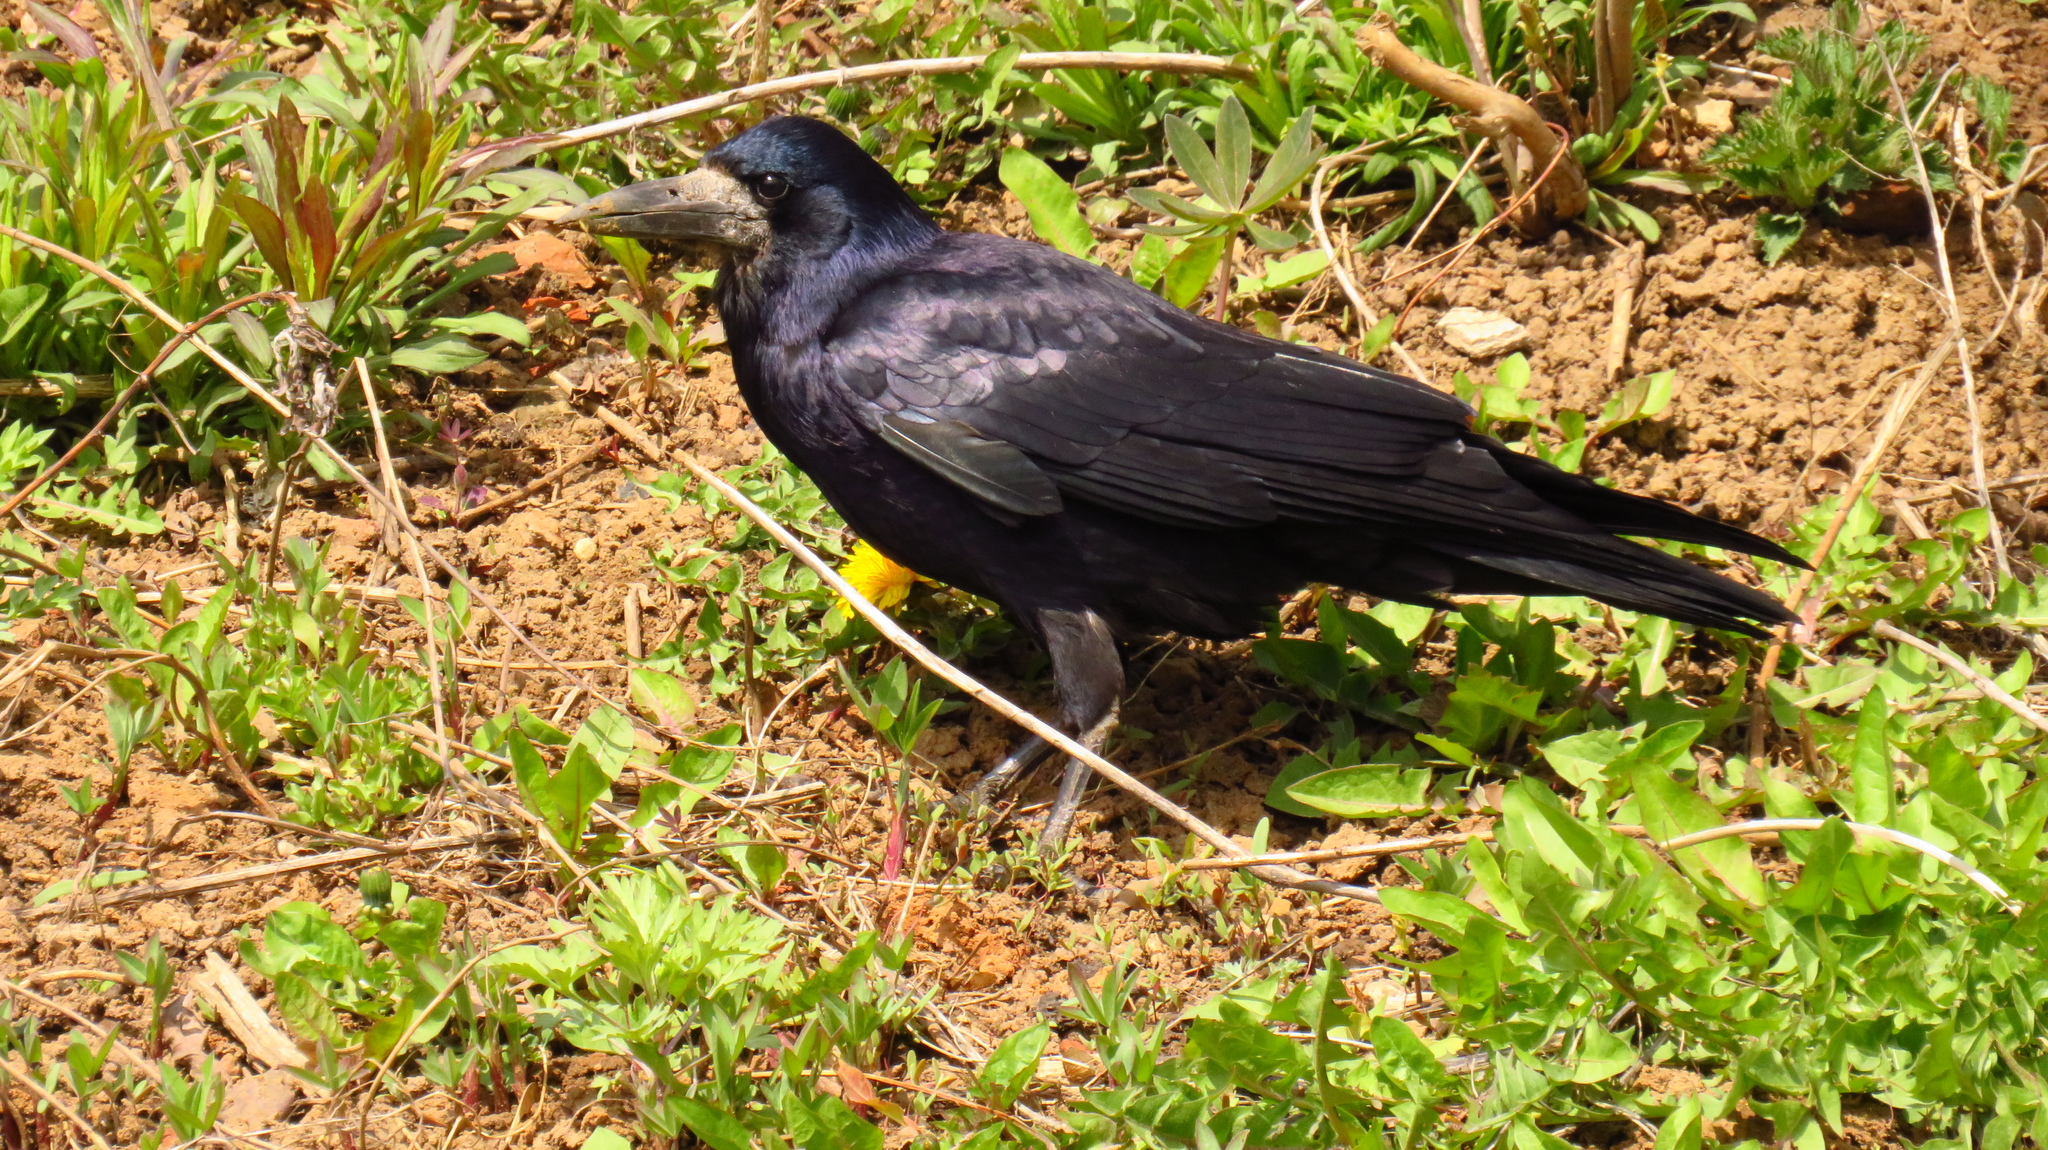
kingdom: Animalia
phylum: Chordata
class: Aves
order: Passeriformes
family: Corvidae
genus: Corvus
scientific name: Corvus frugilegus
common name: Rook
